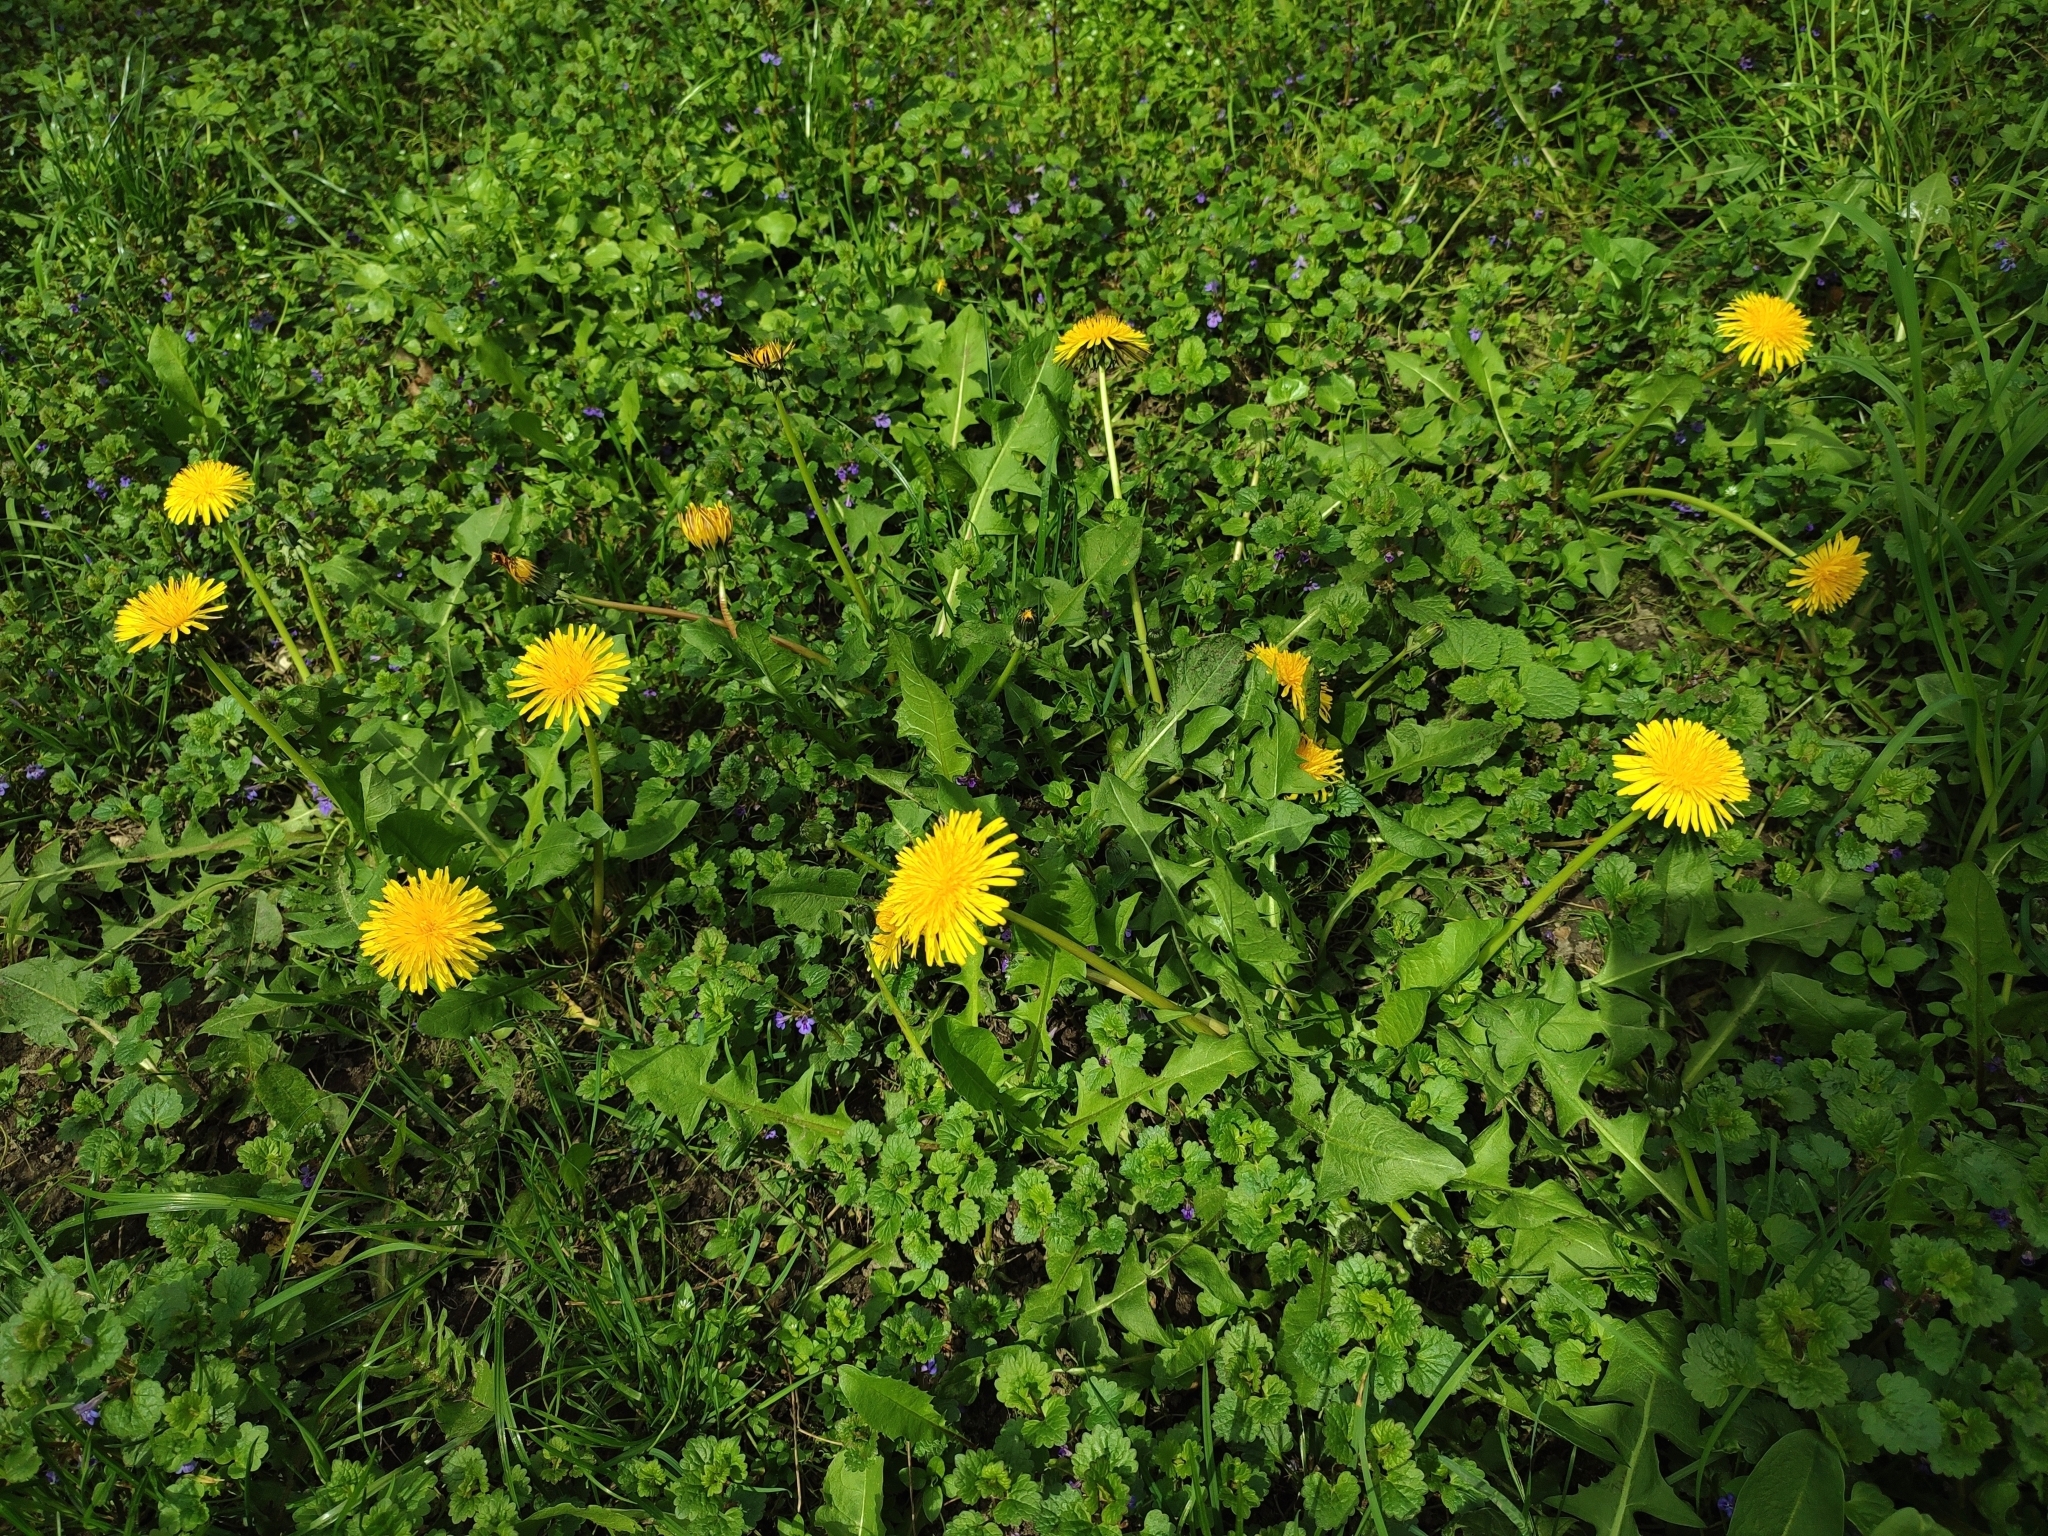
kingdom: Plantae
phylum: Tracheophyta
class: Magnoliopsida
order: Asterales
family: Asteraceae
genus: Taraxacum
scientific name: Taraxacum officinale
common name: Common dandelion
